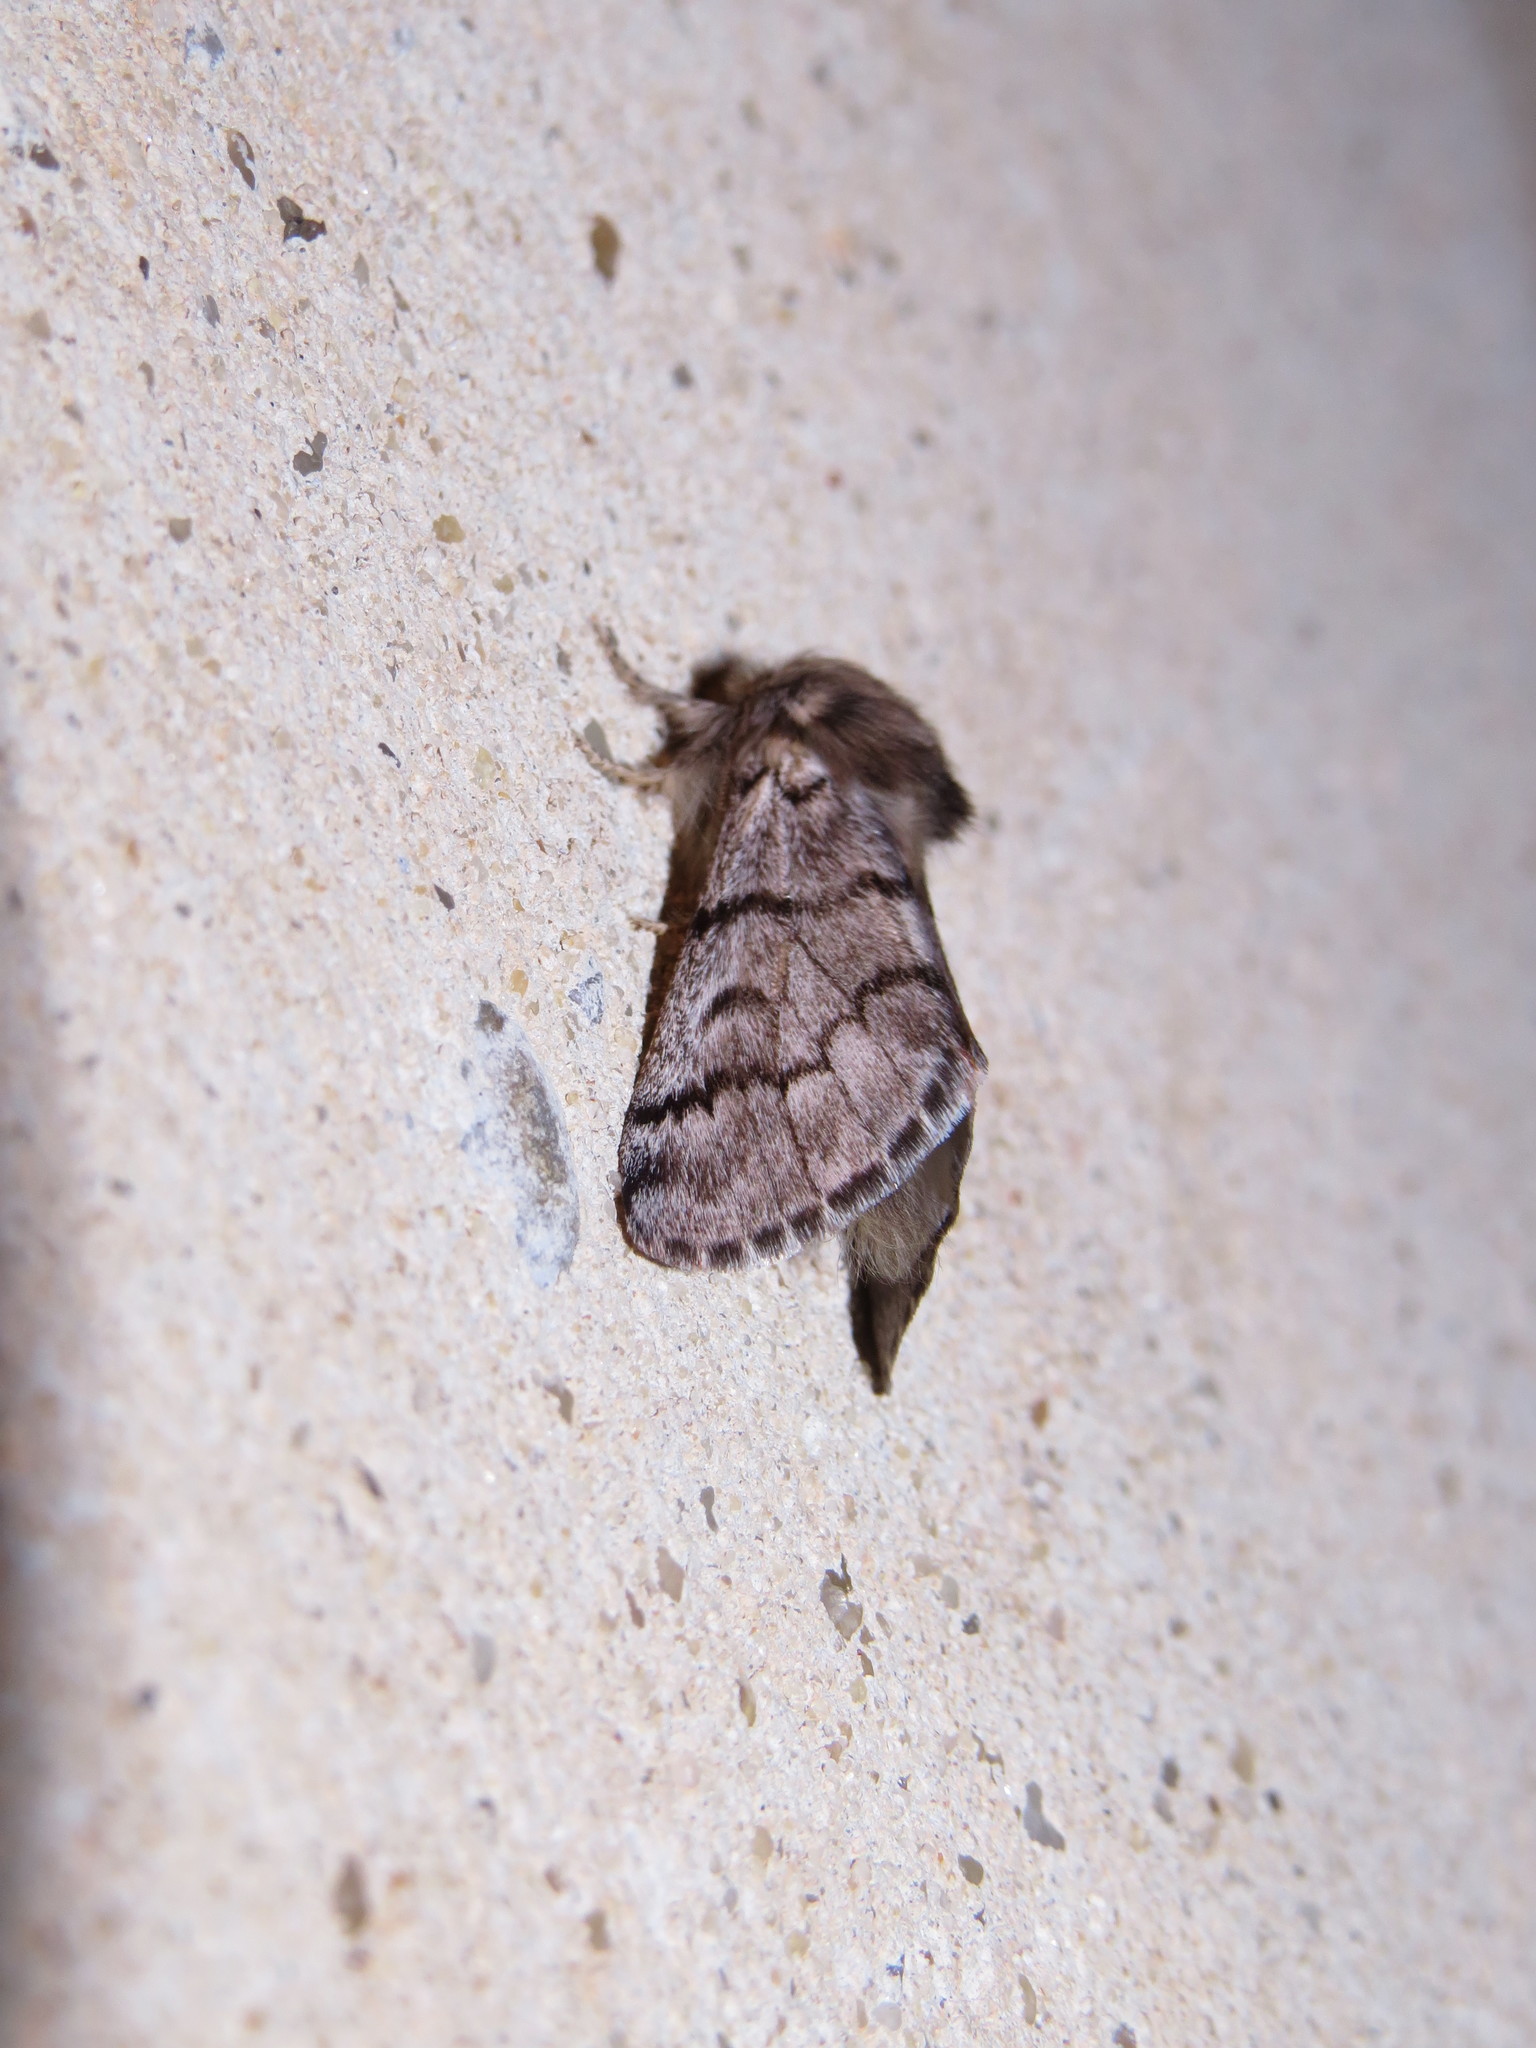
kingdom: Animalia
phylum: Arthropoda
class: Insecta
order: Lepidoptera
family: Notodontidae
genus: Thaumetopoea
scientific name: Thaumetopoea pityocampa
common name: Pine processionary
